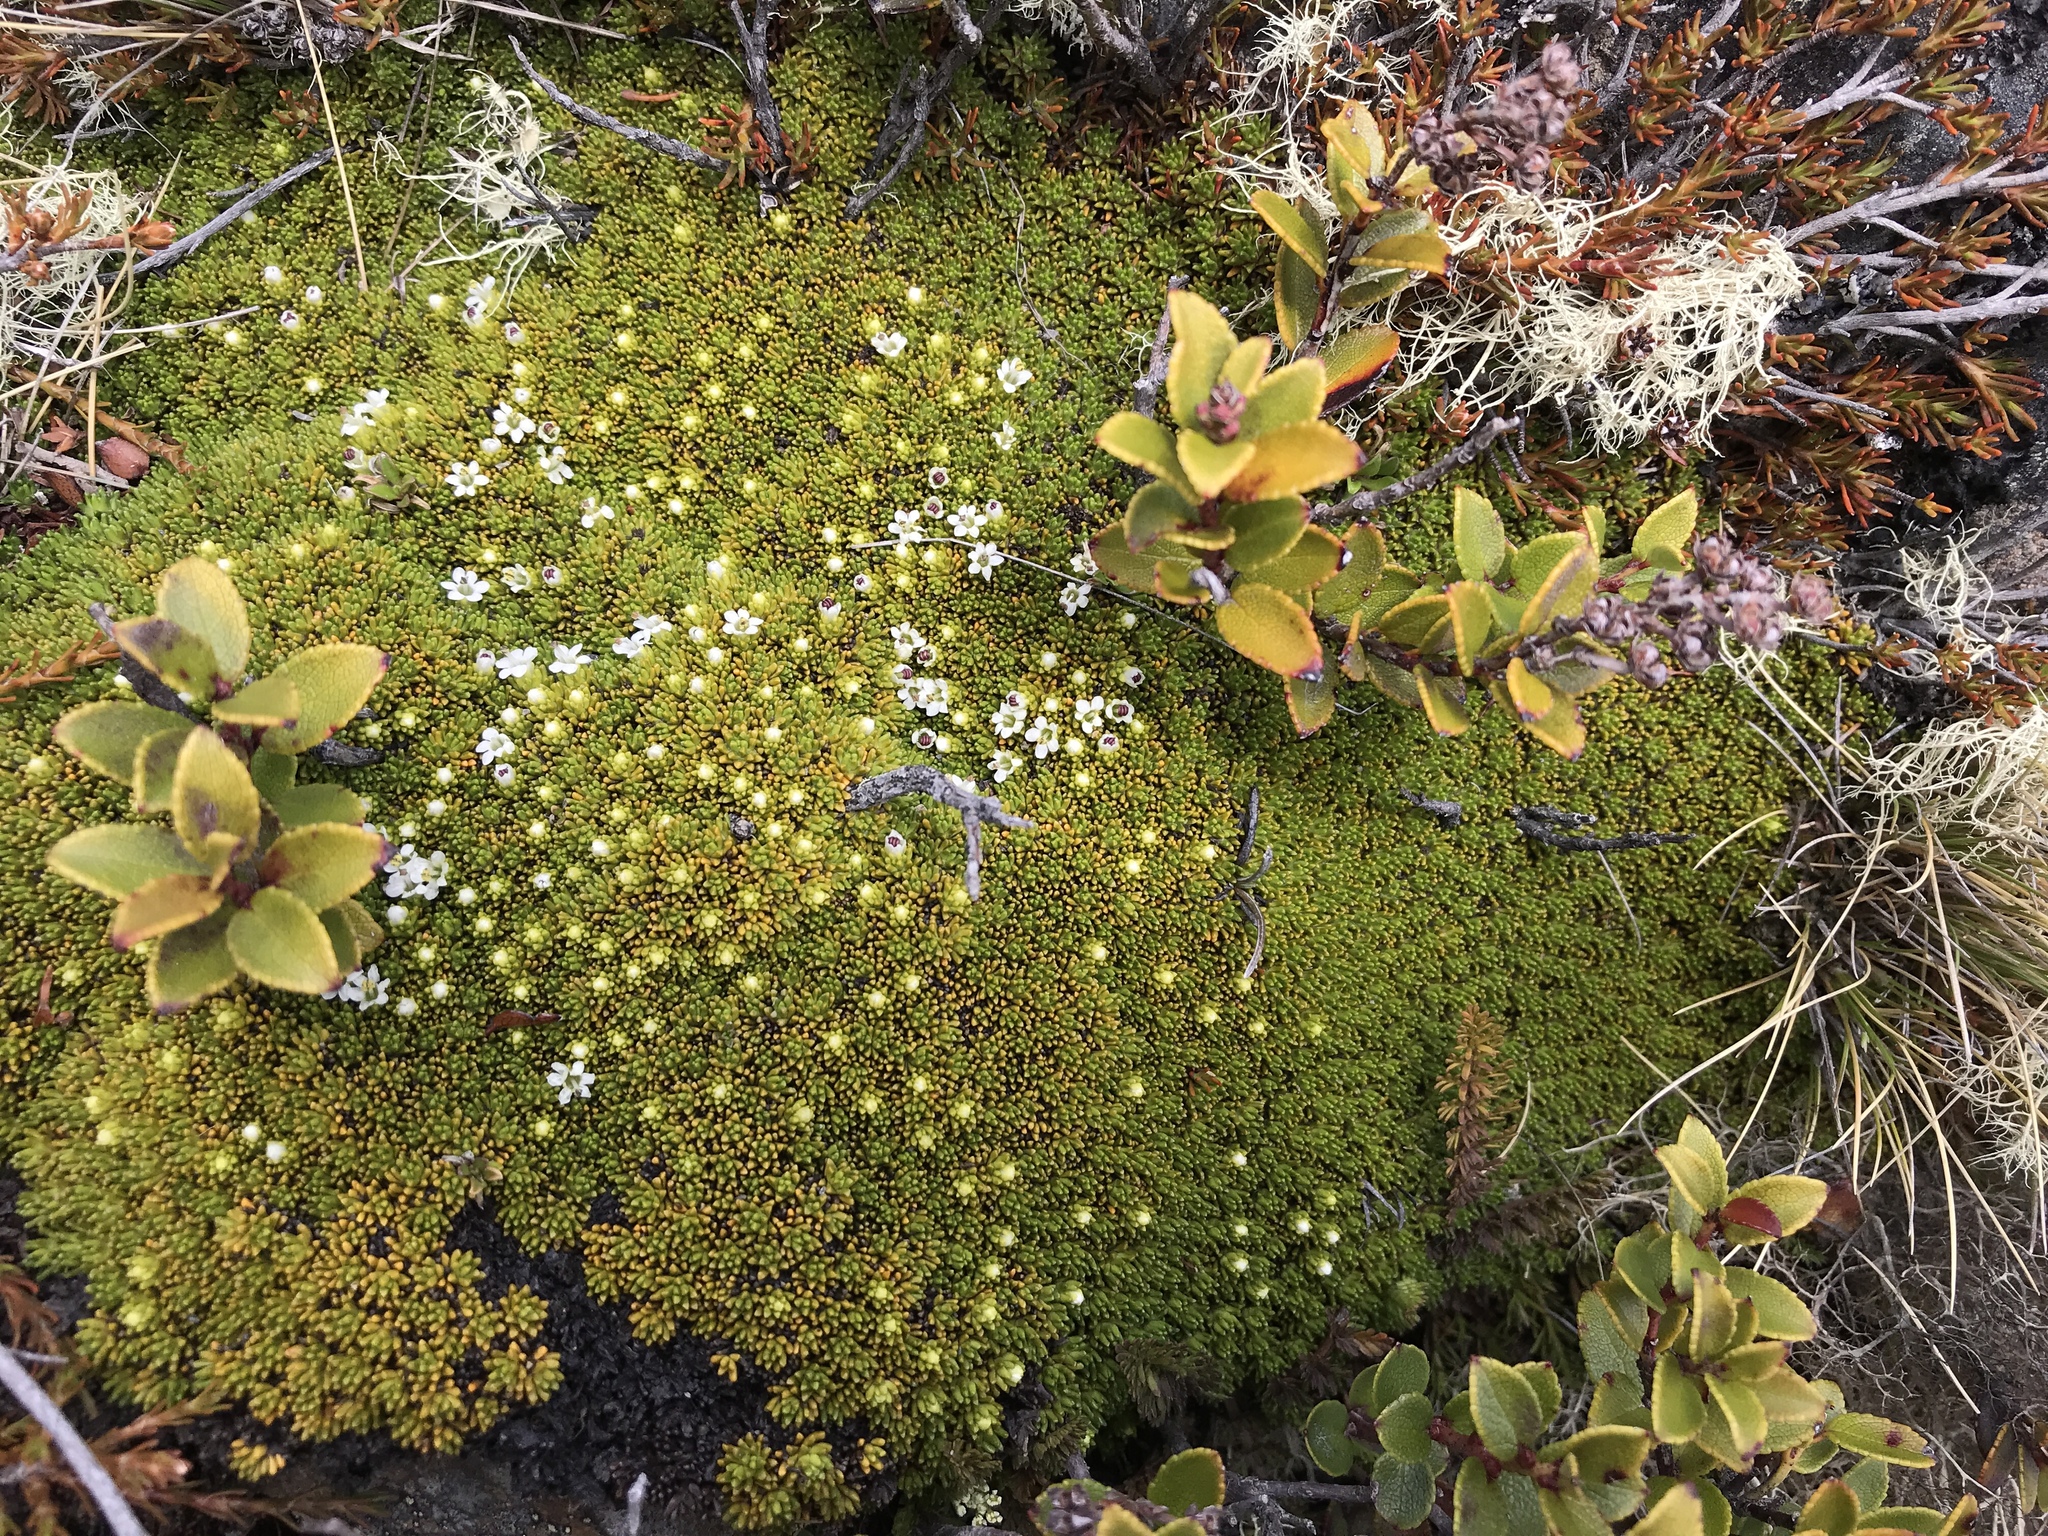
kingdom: Plantae
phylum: Tracheophyta
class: Magnoliopsida
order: Asterales
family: Stylidiaceae
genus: Phyllachne
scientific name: Phyllachne colensoi
